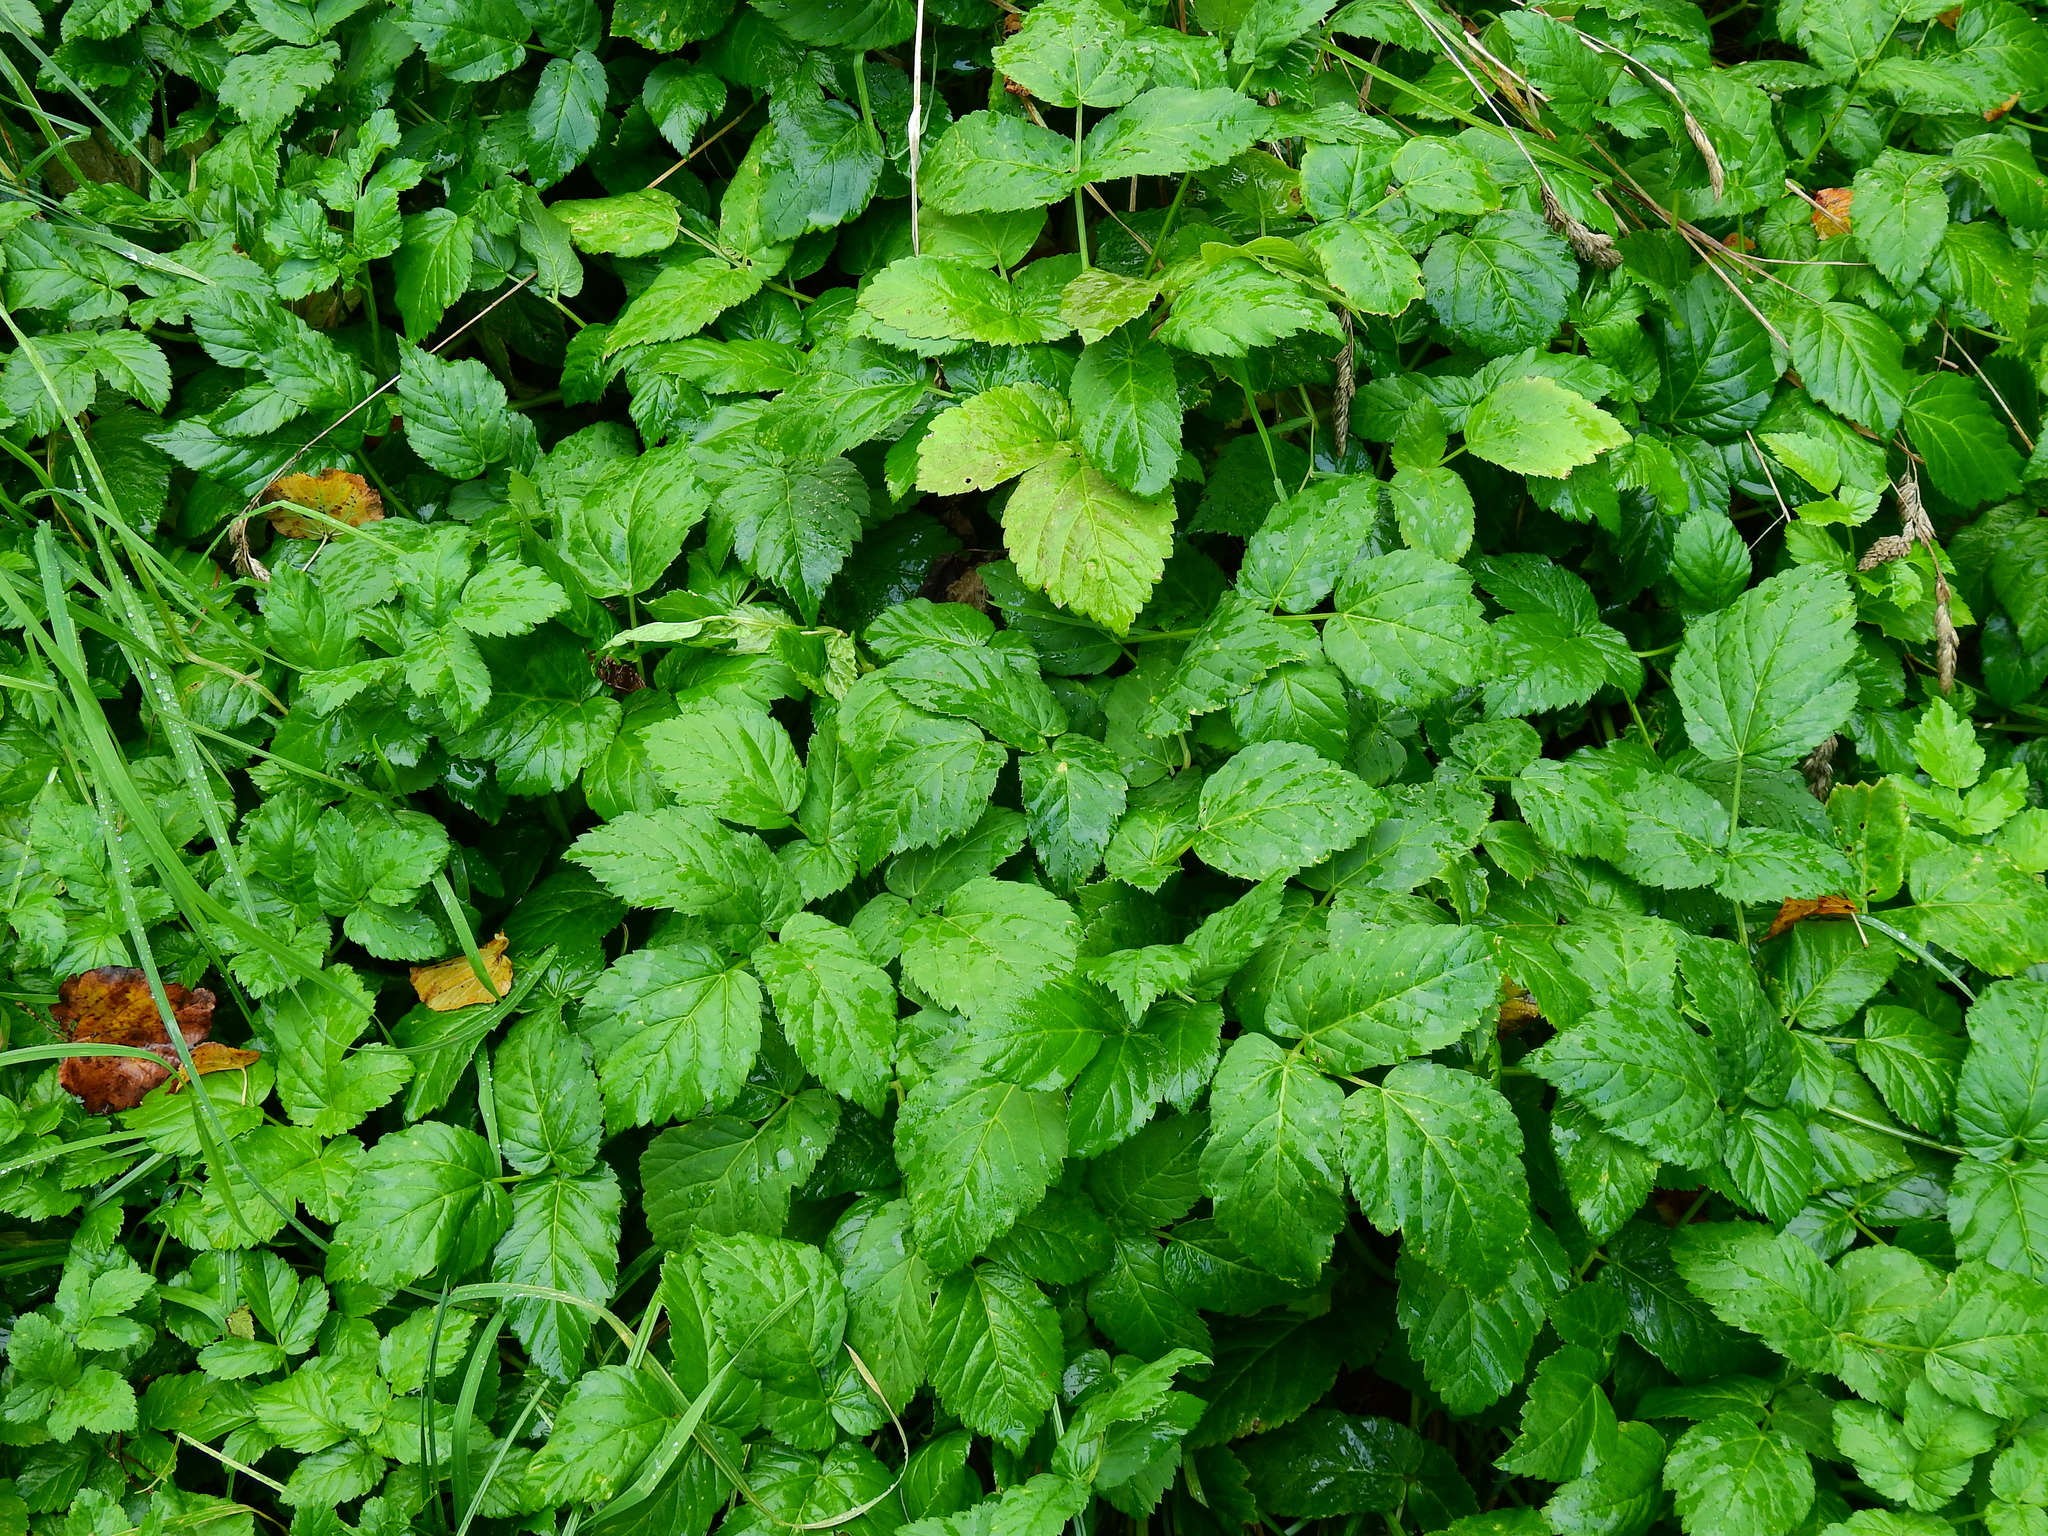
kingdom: Plantae
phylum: Tracheophyta
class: Magnoliopsida
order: Apiales
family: Apiaceae
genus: Aegopodium
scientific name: Aegopodium podagraria
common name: Ground-elder
